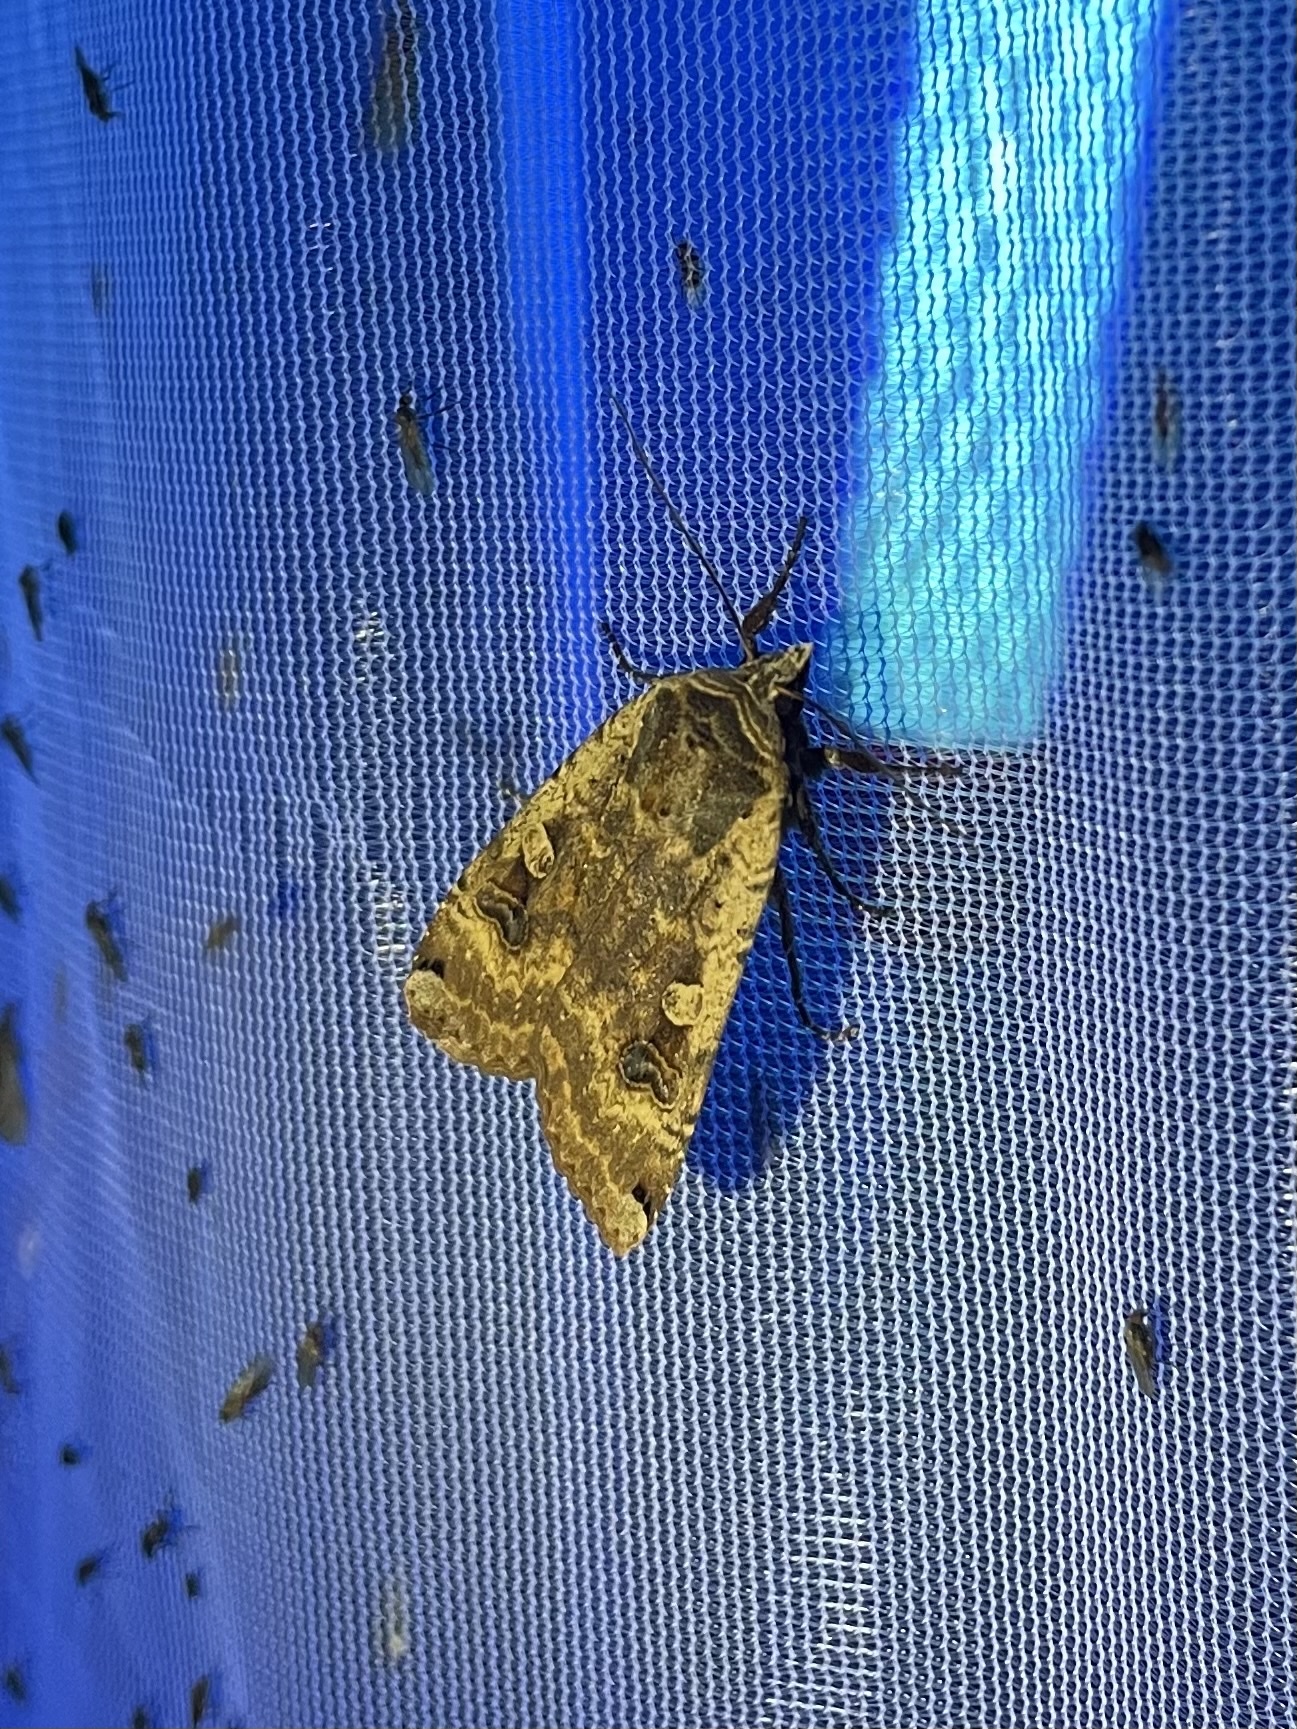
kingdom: Animalia
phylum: Arthropoda
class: Insecta
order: Lepidoptera
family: Noctuidae
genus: Noctua
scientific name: Noctua pronuba
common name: Large yellow underwing
